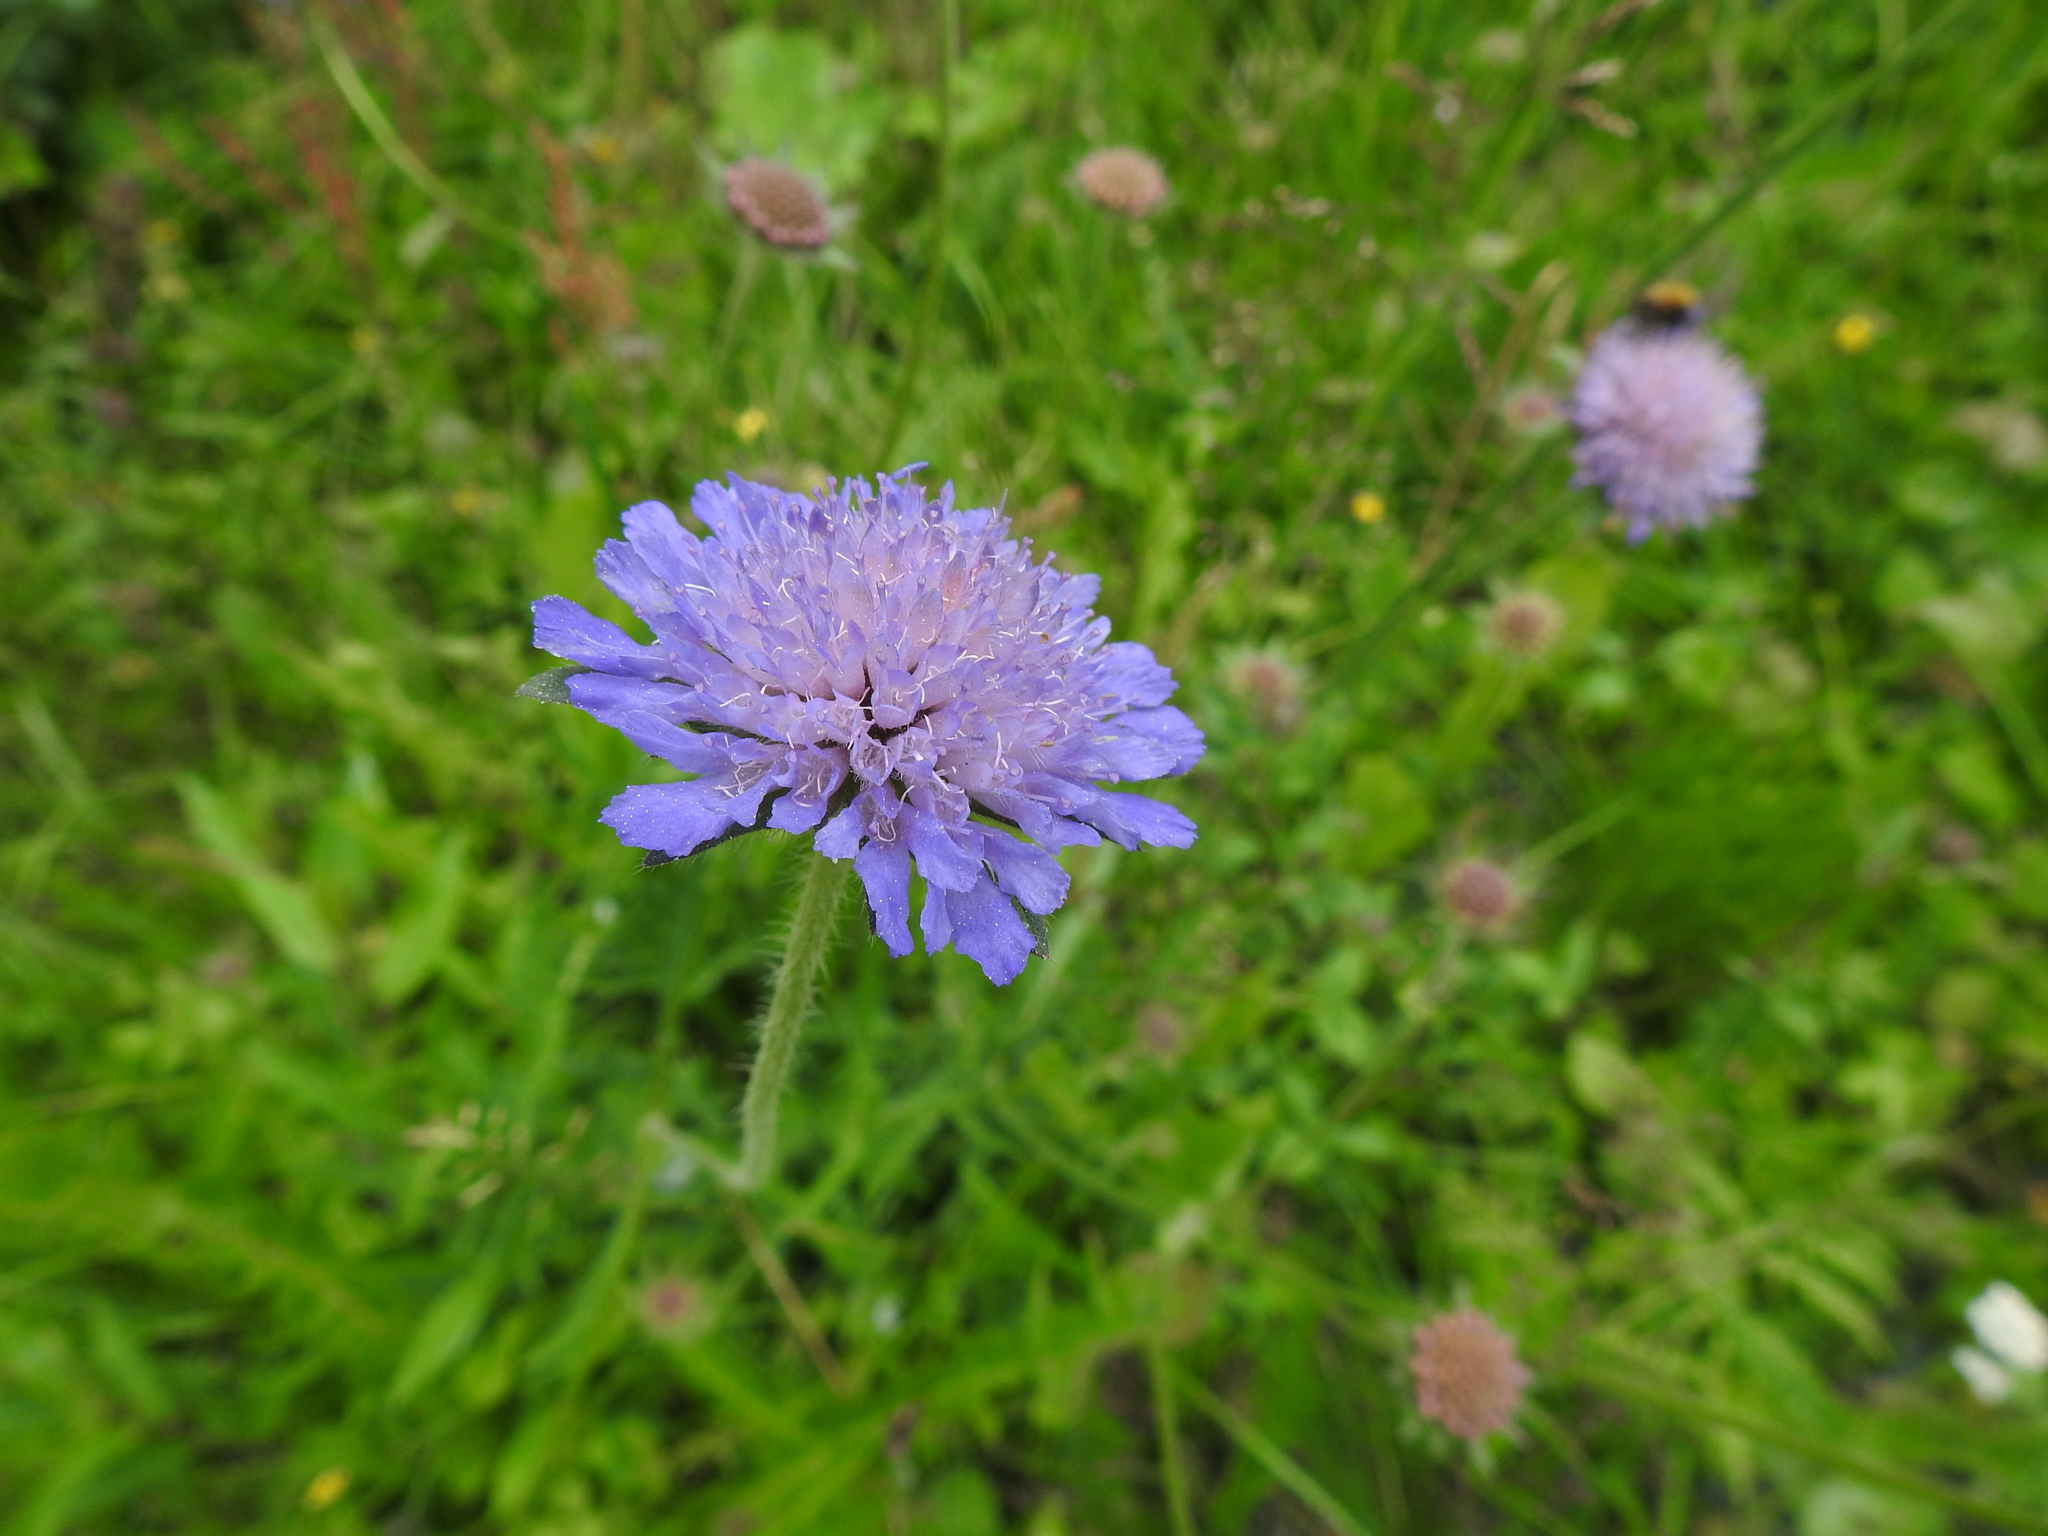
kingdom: Plantae
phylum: Tracheophyta
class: Magnoliopsida
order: Dipsacales
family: Caprifoliaceae
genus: Knautia
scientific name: Knautia arvensis
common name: Field scabiosa
